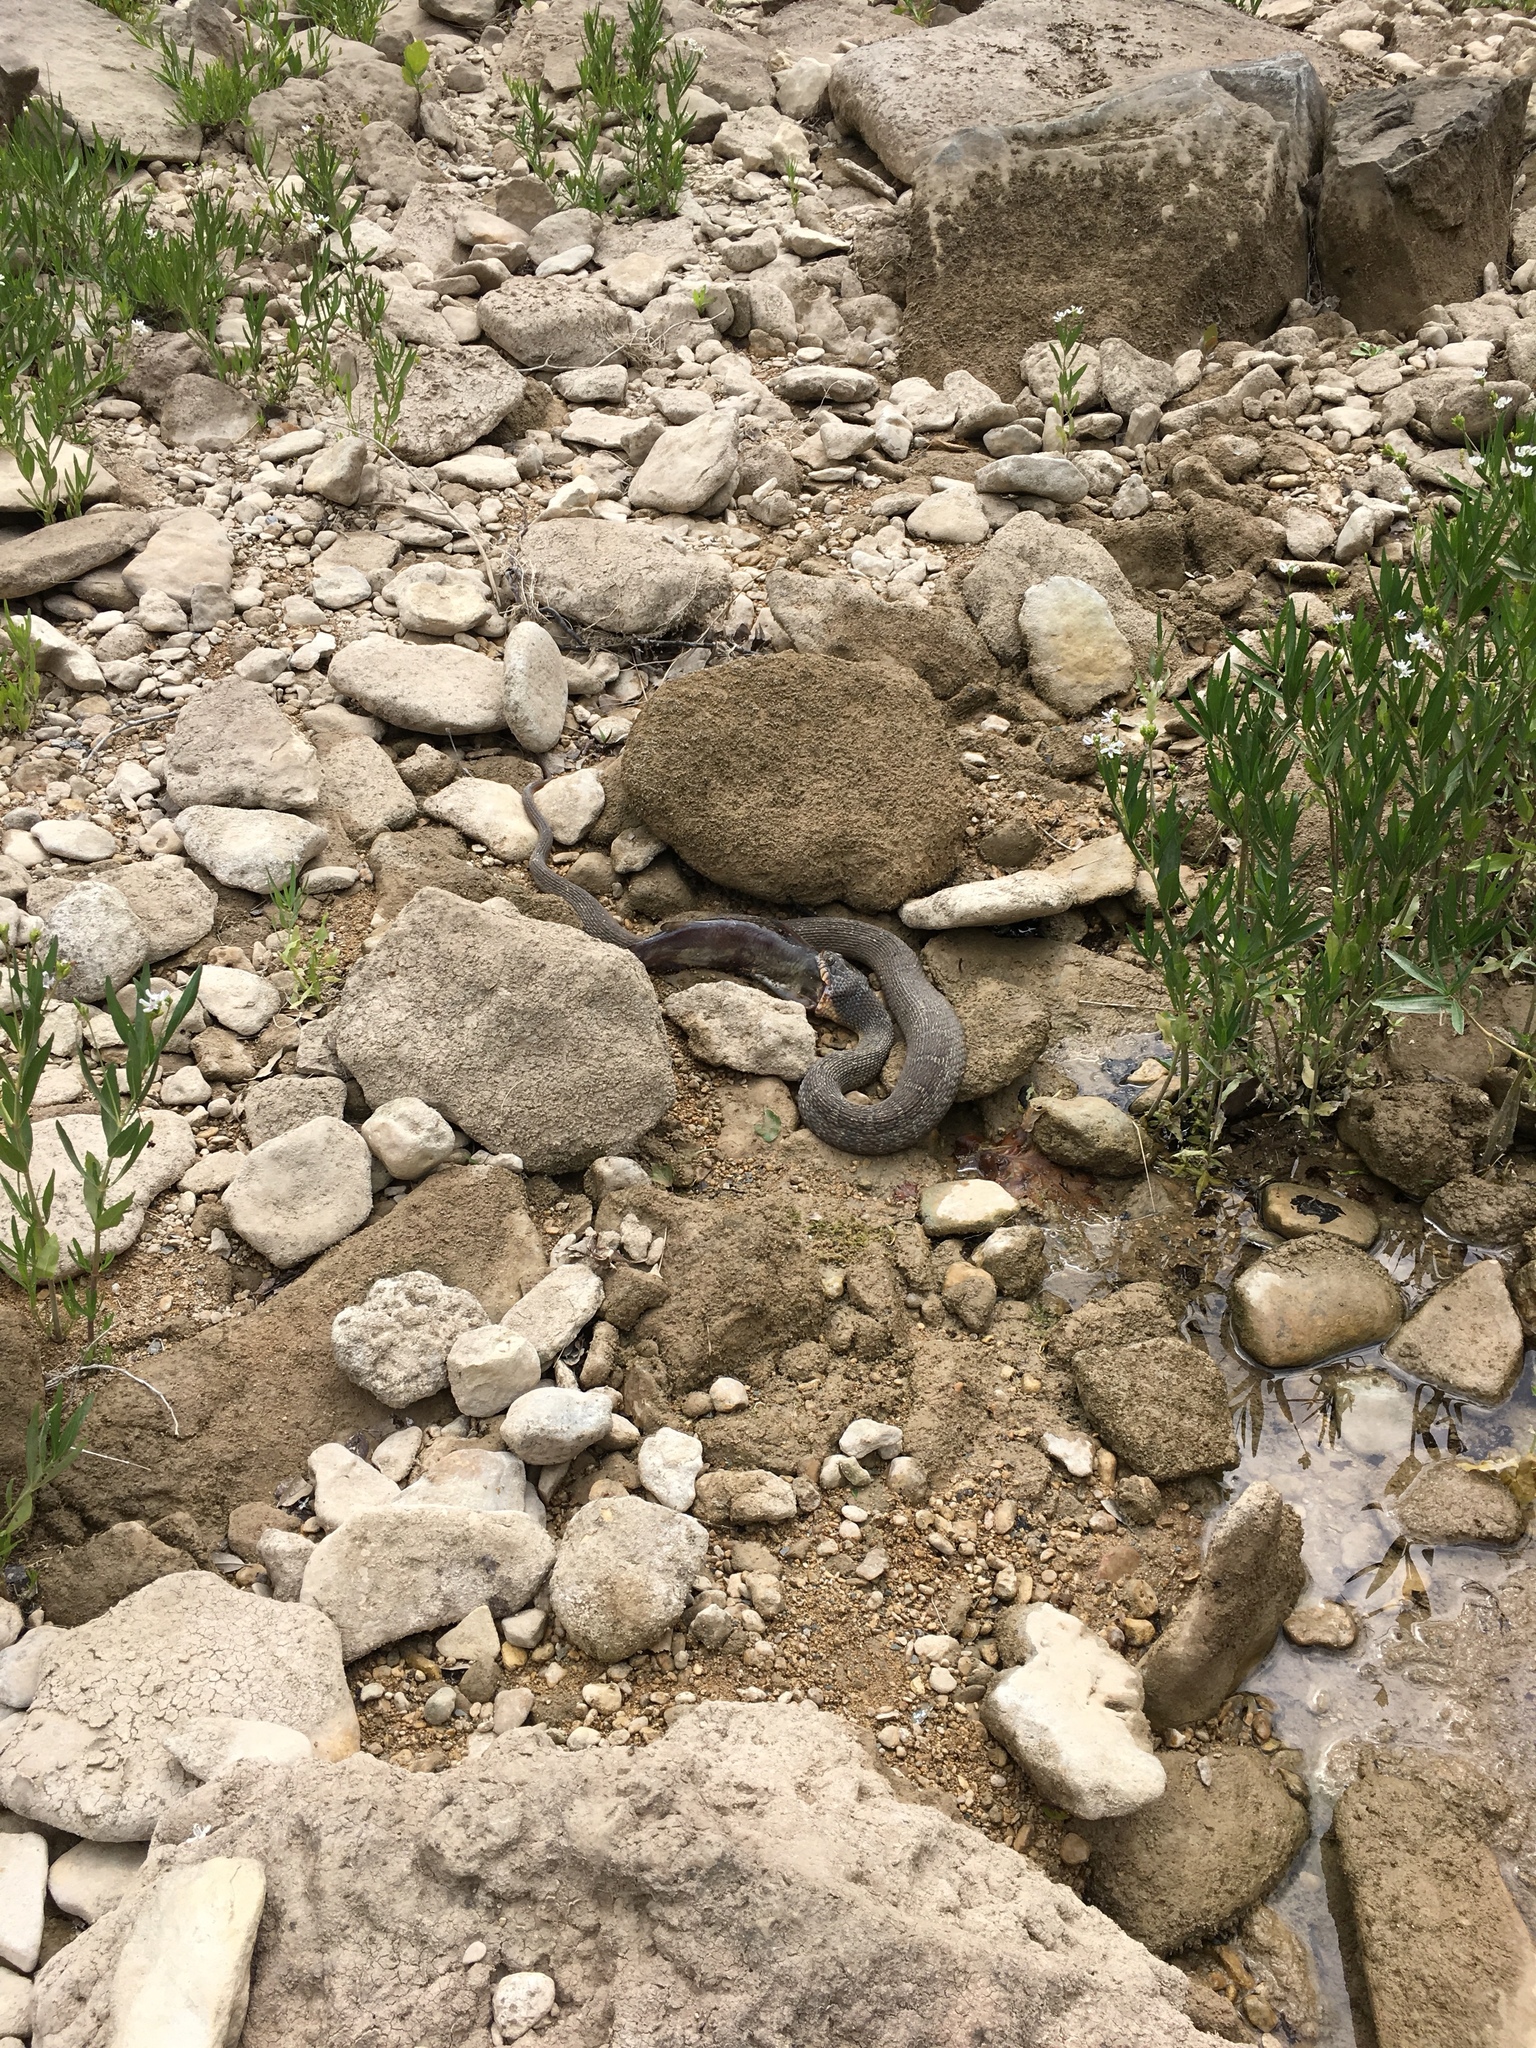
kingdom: Animalia
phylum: Chordata
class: Squamata
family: Colubridae
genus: Nerodia
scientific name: Nerodia erythrogaster
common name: Plainbelly water snake
